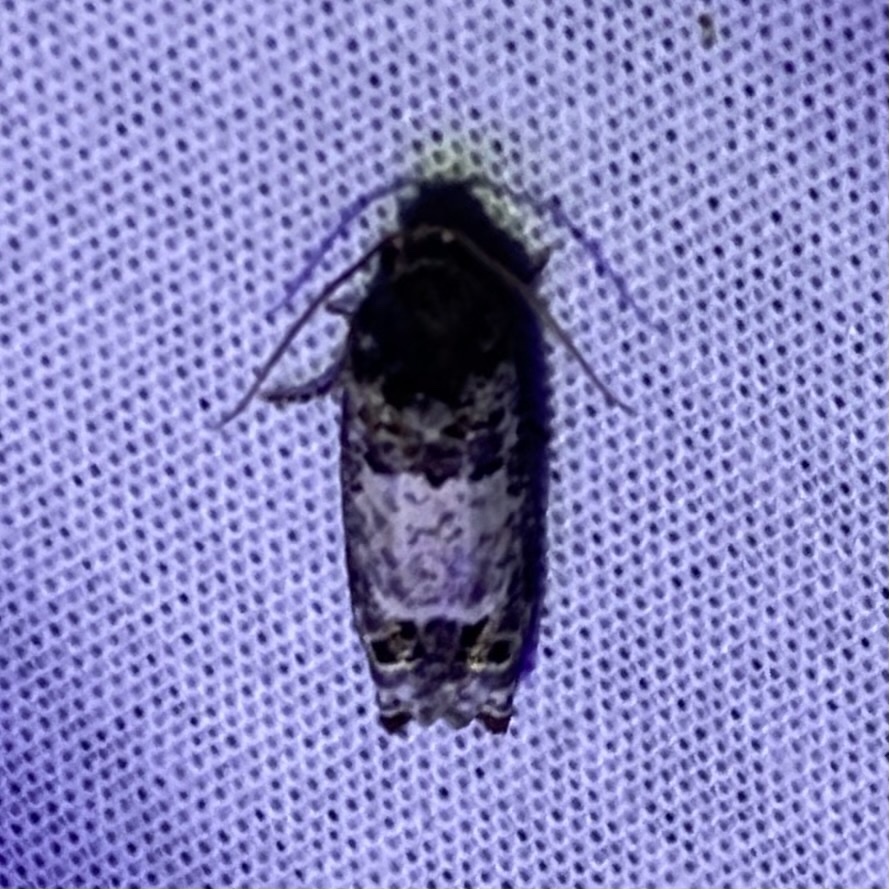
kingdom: Animalia
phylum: Arthropoda
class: Insecta
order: Lepidoptera
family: Tortricidae
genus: Epiblema
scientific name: Epiblema carolinana
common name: Gray-blotched epiblema moth
